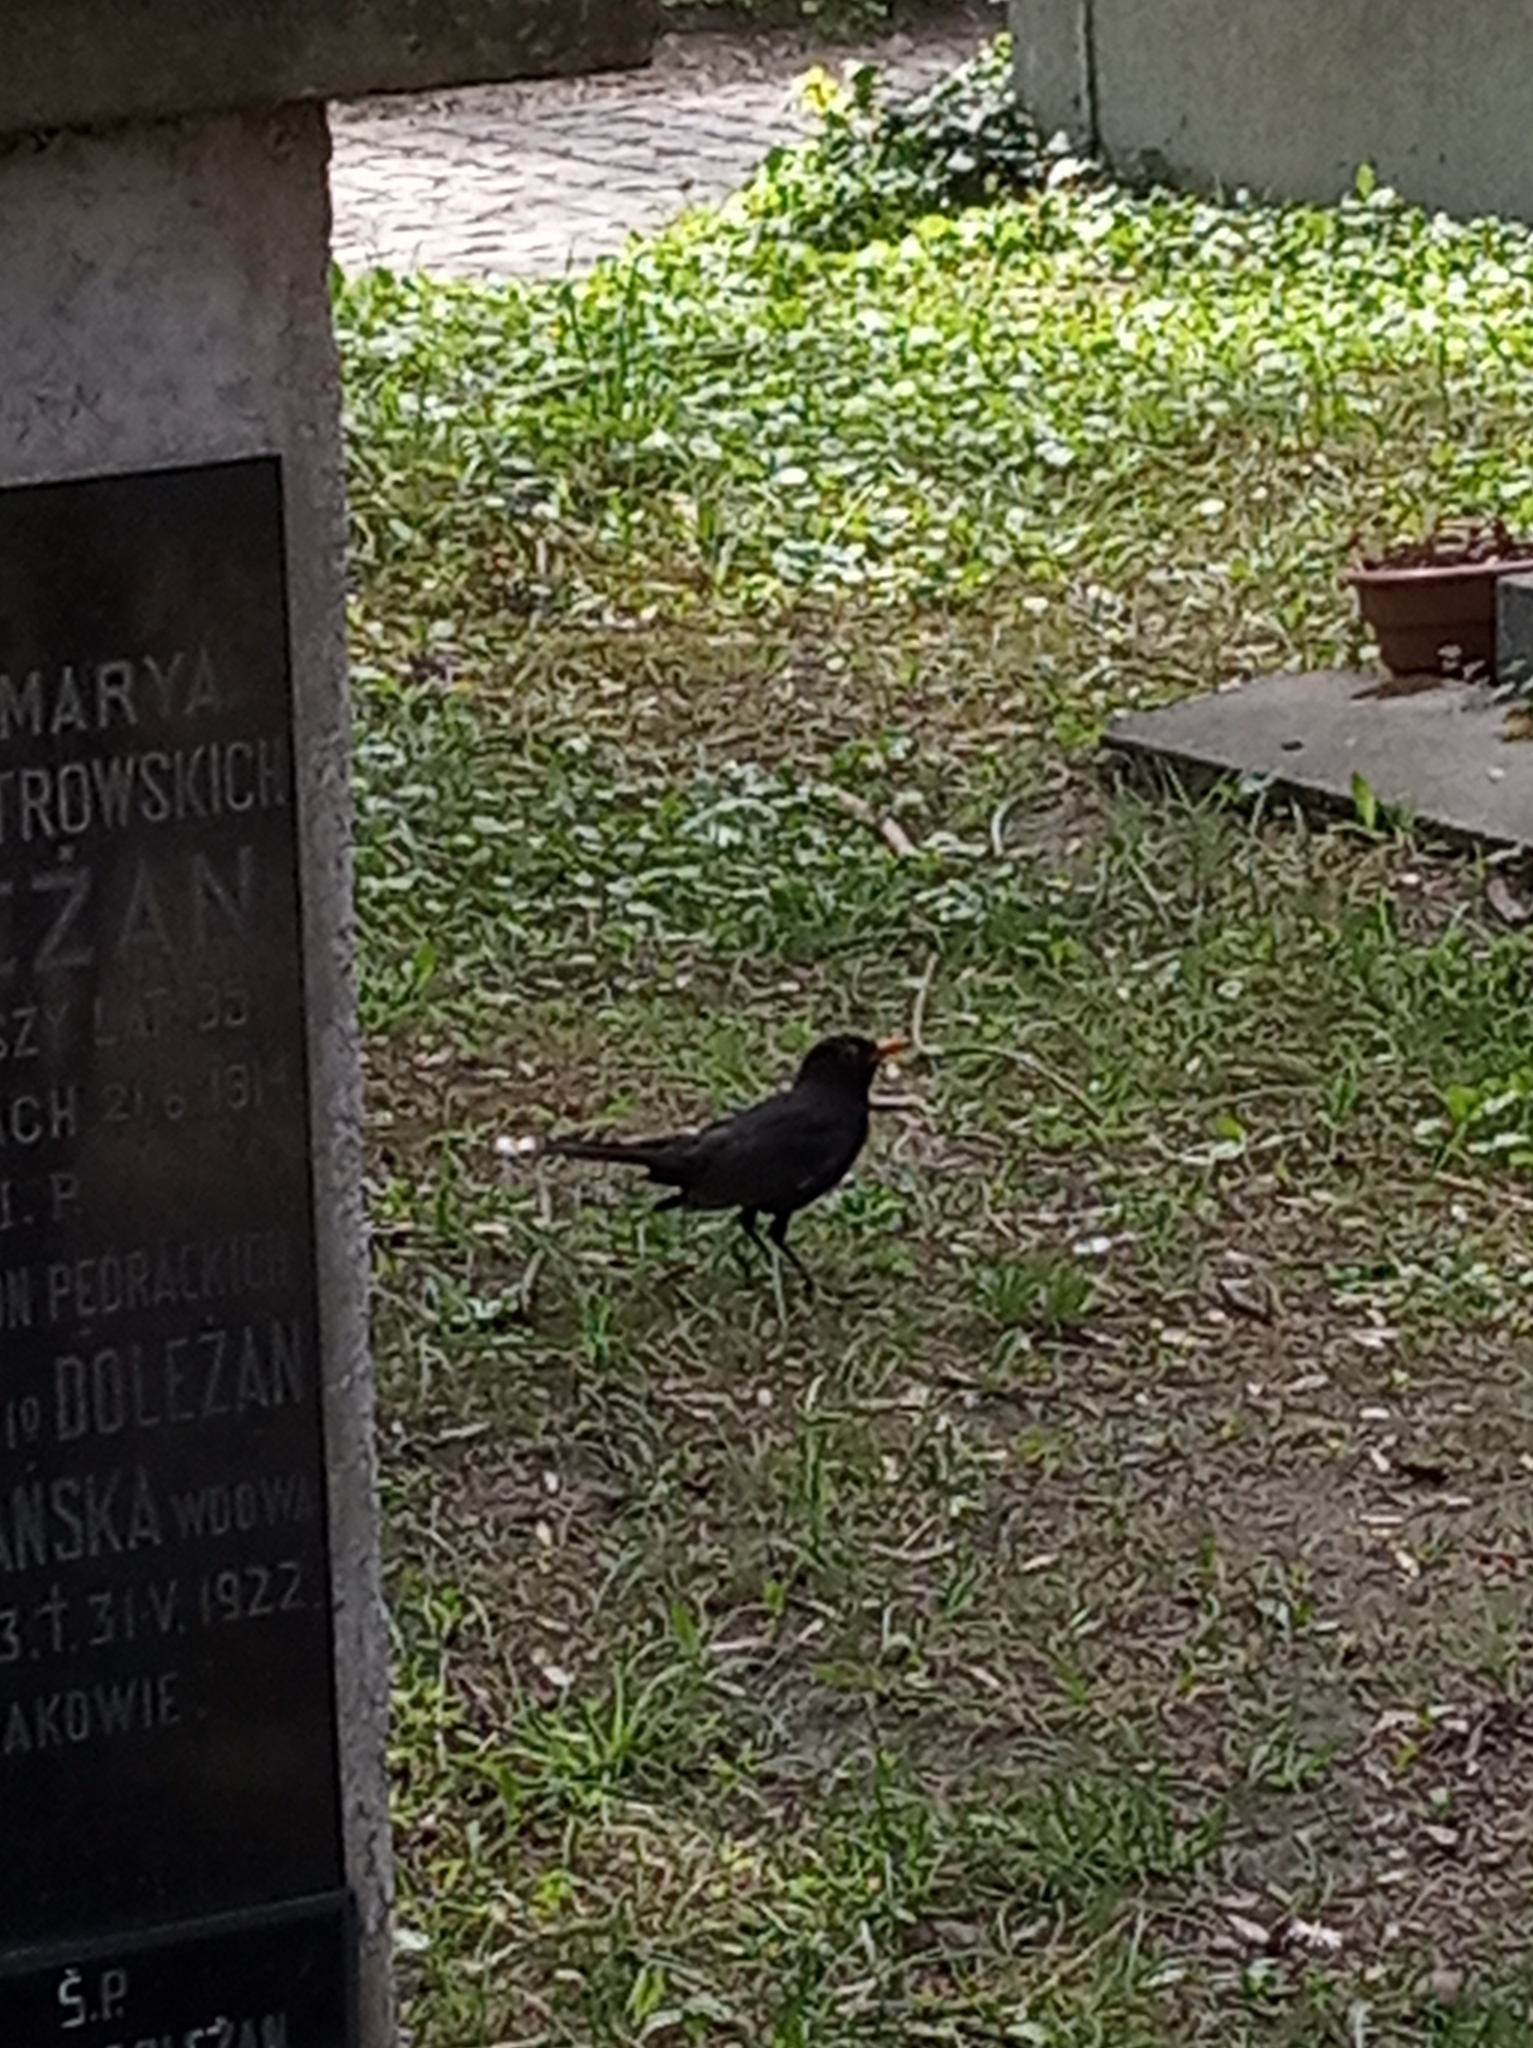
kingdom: Animalia
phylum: Chordata
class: Aves
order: Passeriformes
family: Turdidae
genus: Turdus
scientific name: Turdus merula
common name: Common blackbird
